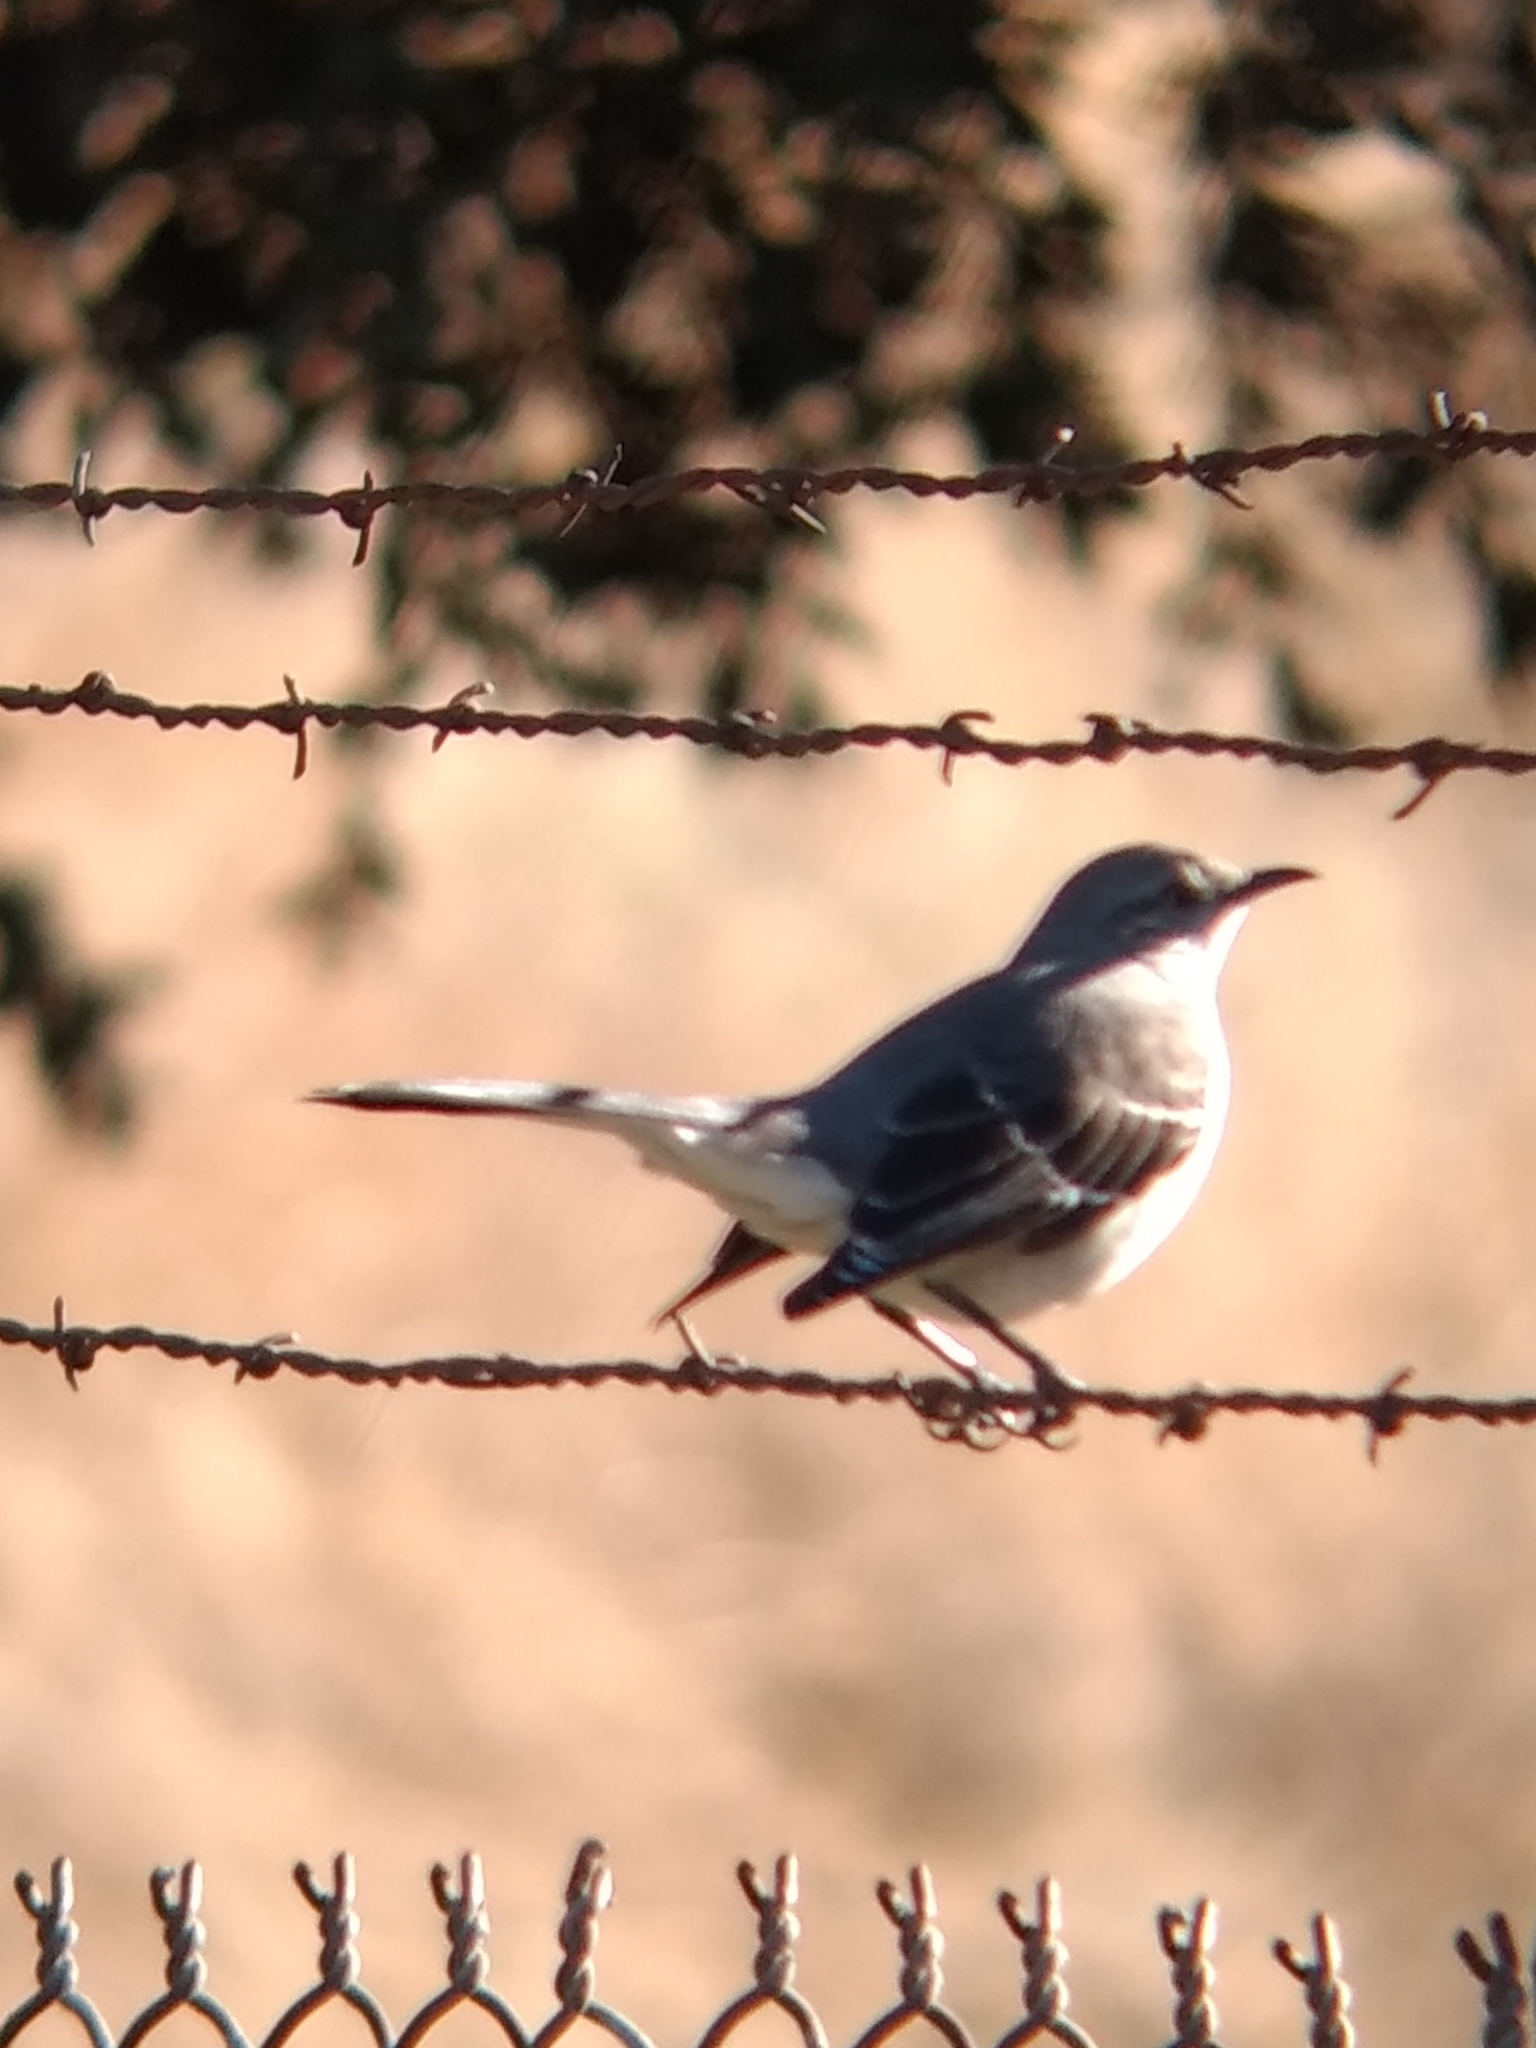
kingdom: Animalia
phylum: Chordata
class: Aves
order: Passeriformes
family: Mimidae
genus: Mimus
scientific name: Mimus polyglottos
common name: Northern mockingbird
